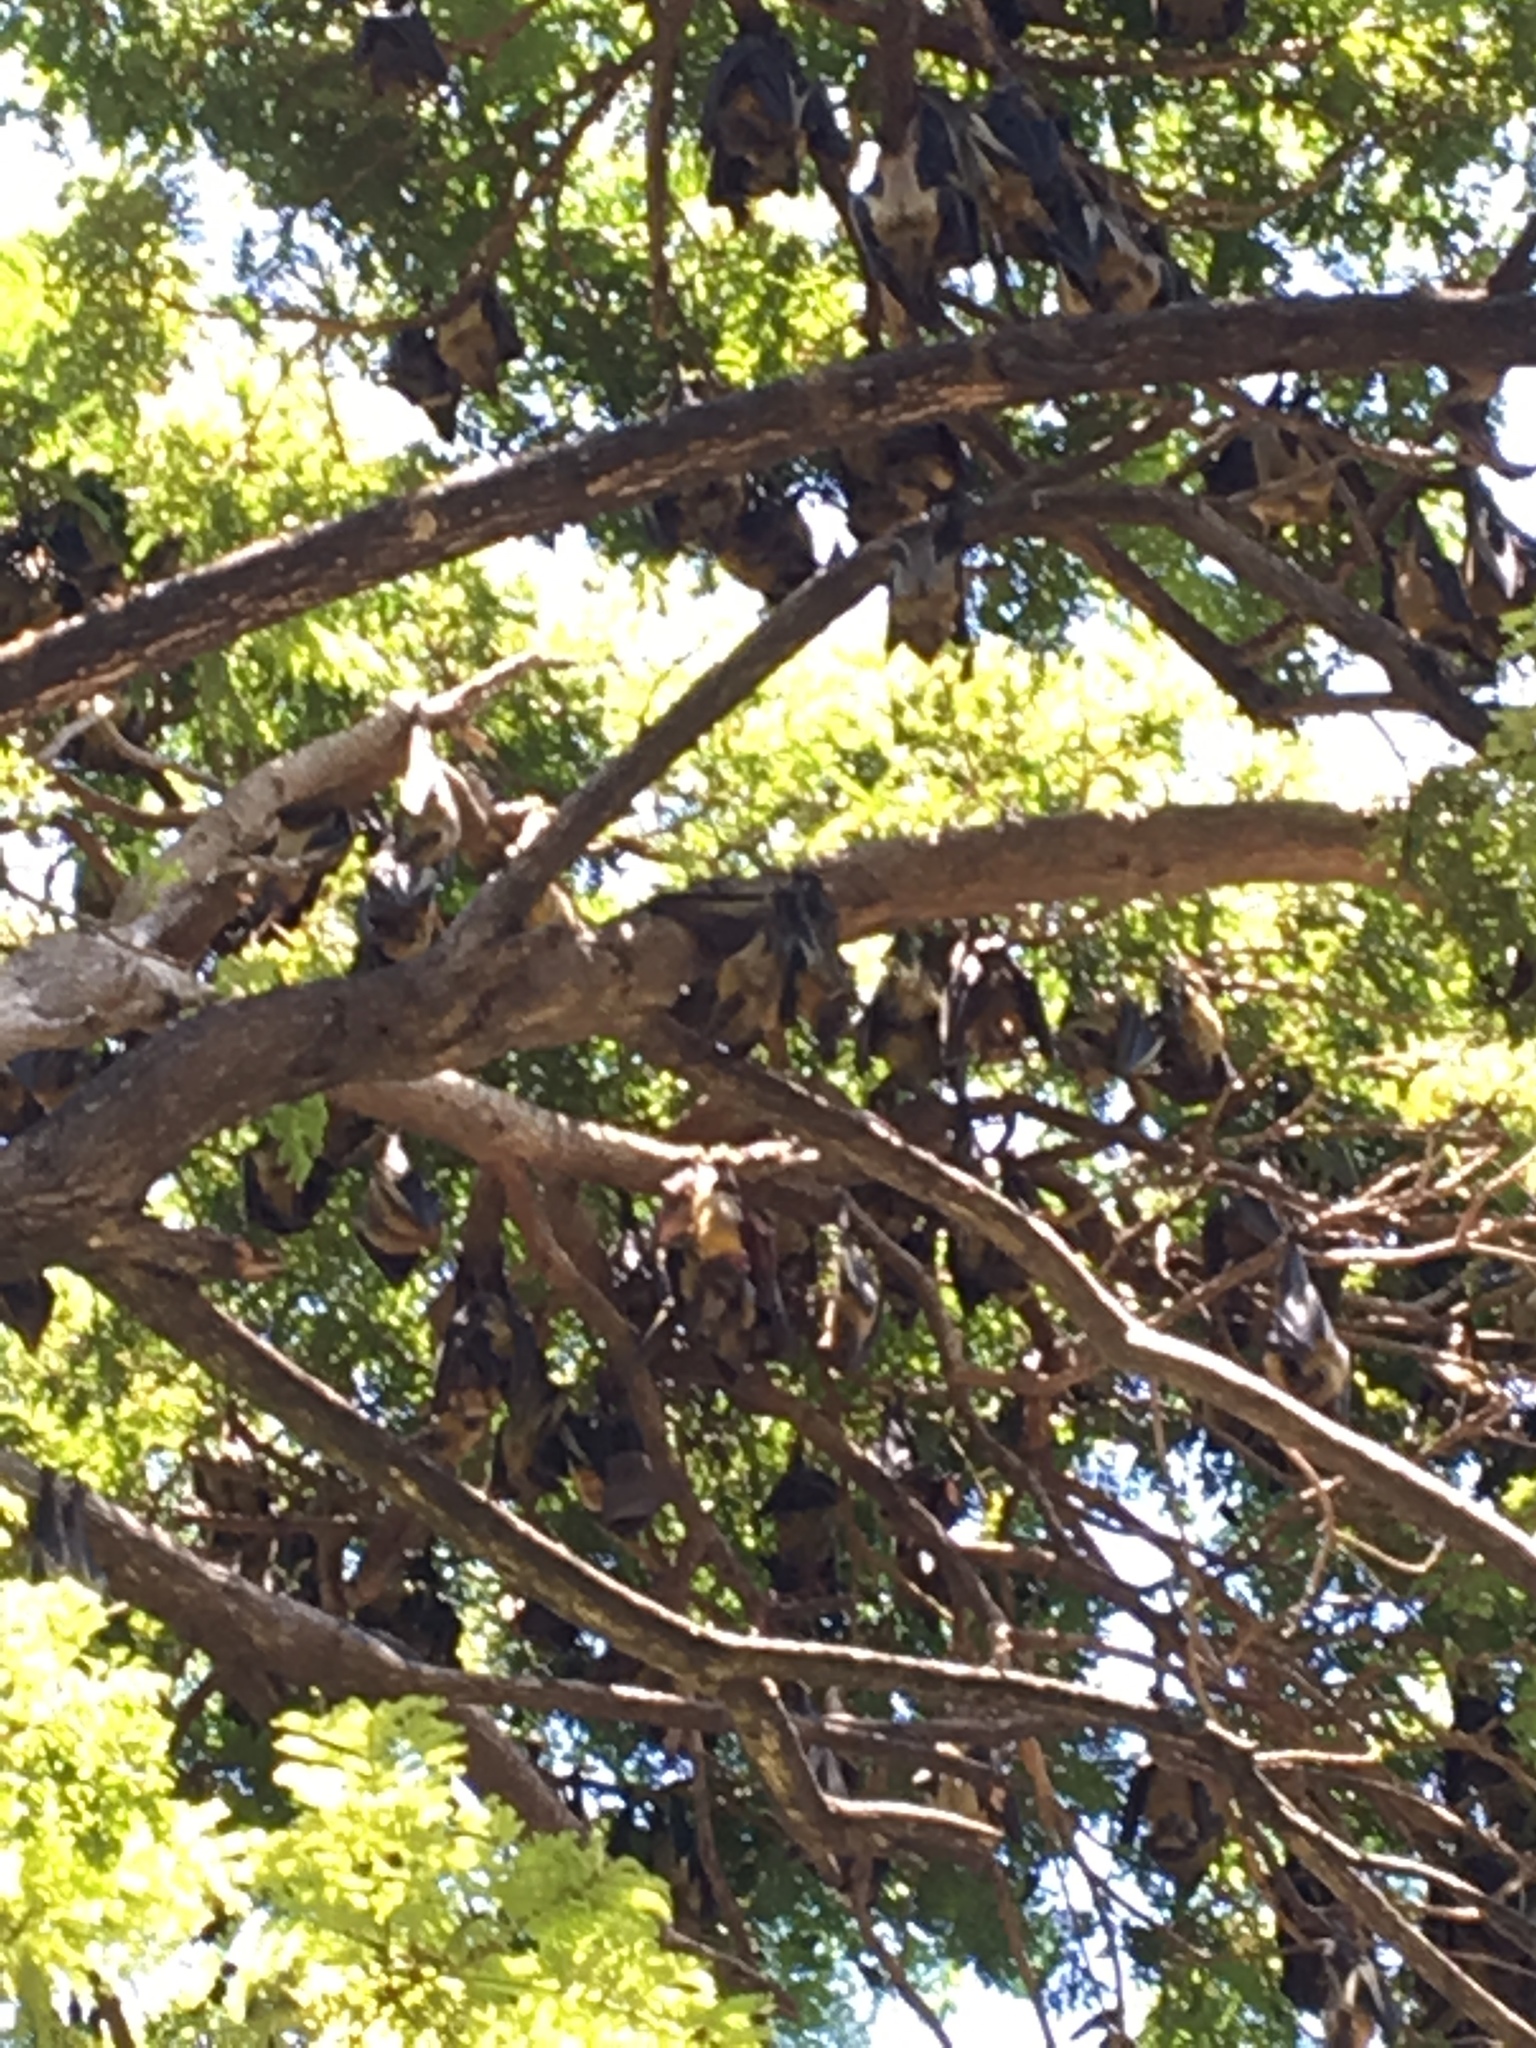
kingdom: Animalia
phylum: Chordata
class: Mammalia
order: Chiroptera
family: Pteropodidae
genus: Eidolon
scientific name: Eidolon helvum
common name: Straw-colored fruit bat
